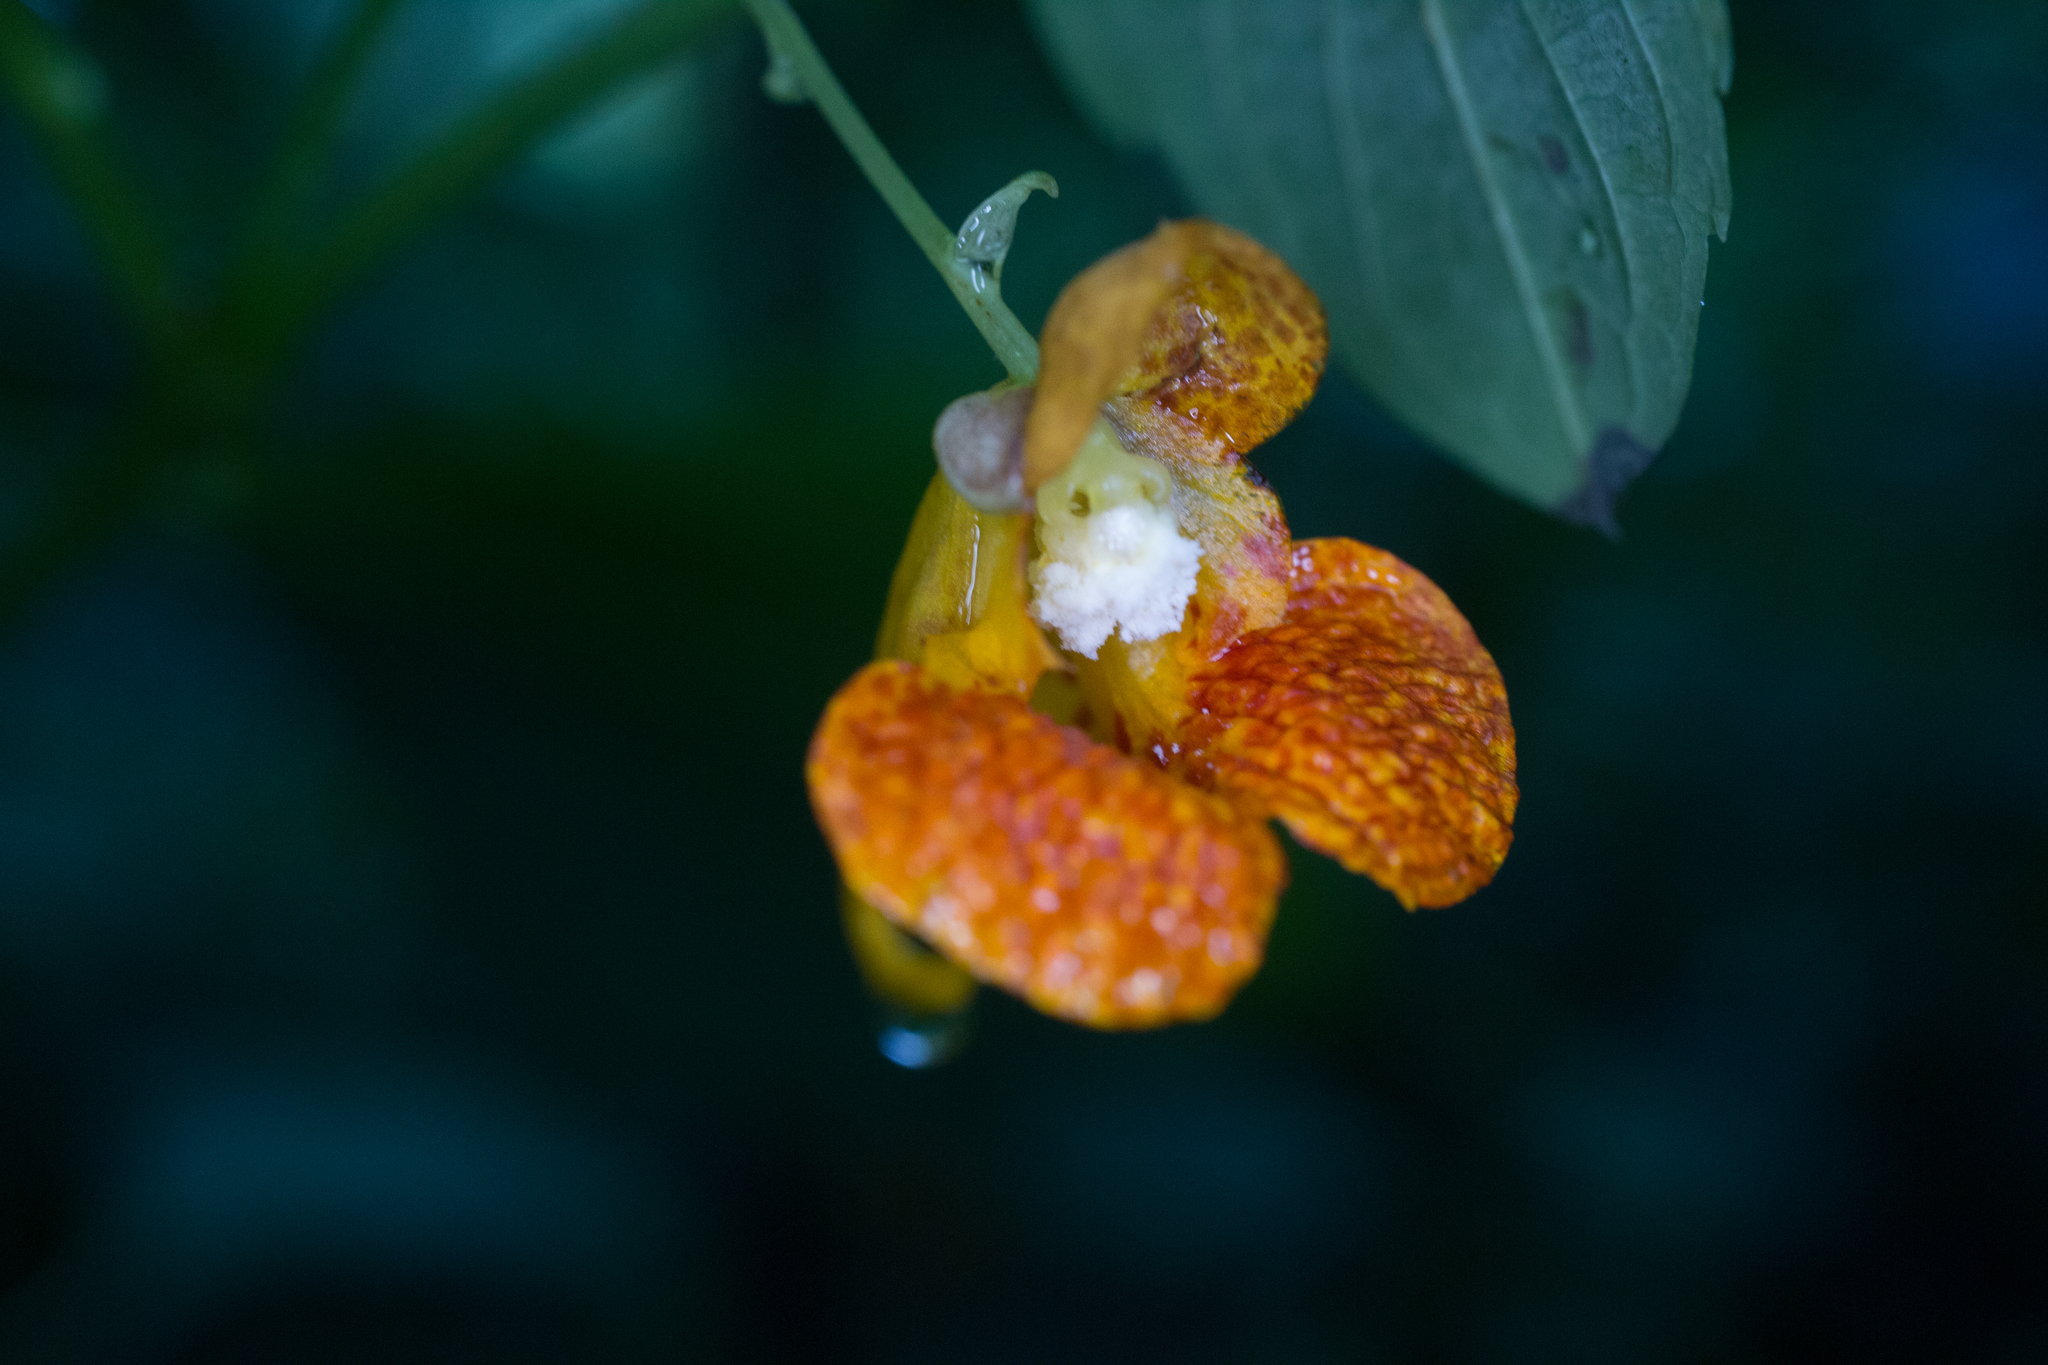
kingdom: Plantae
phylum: Tracheophyta
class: Magnoliopsida
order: Ericales
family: Balsaminaceae
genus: Impatiens
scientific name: Impatiens capensis
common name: Orange balsam
